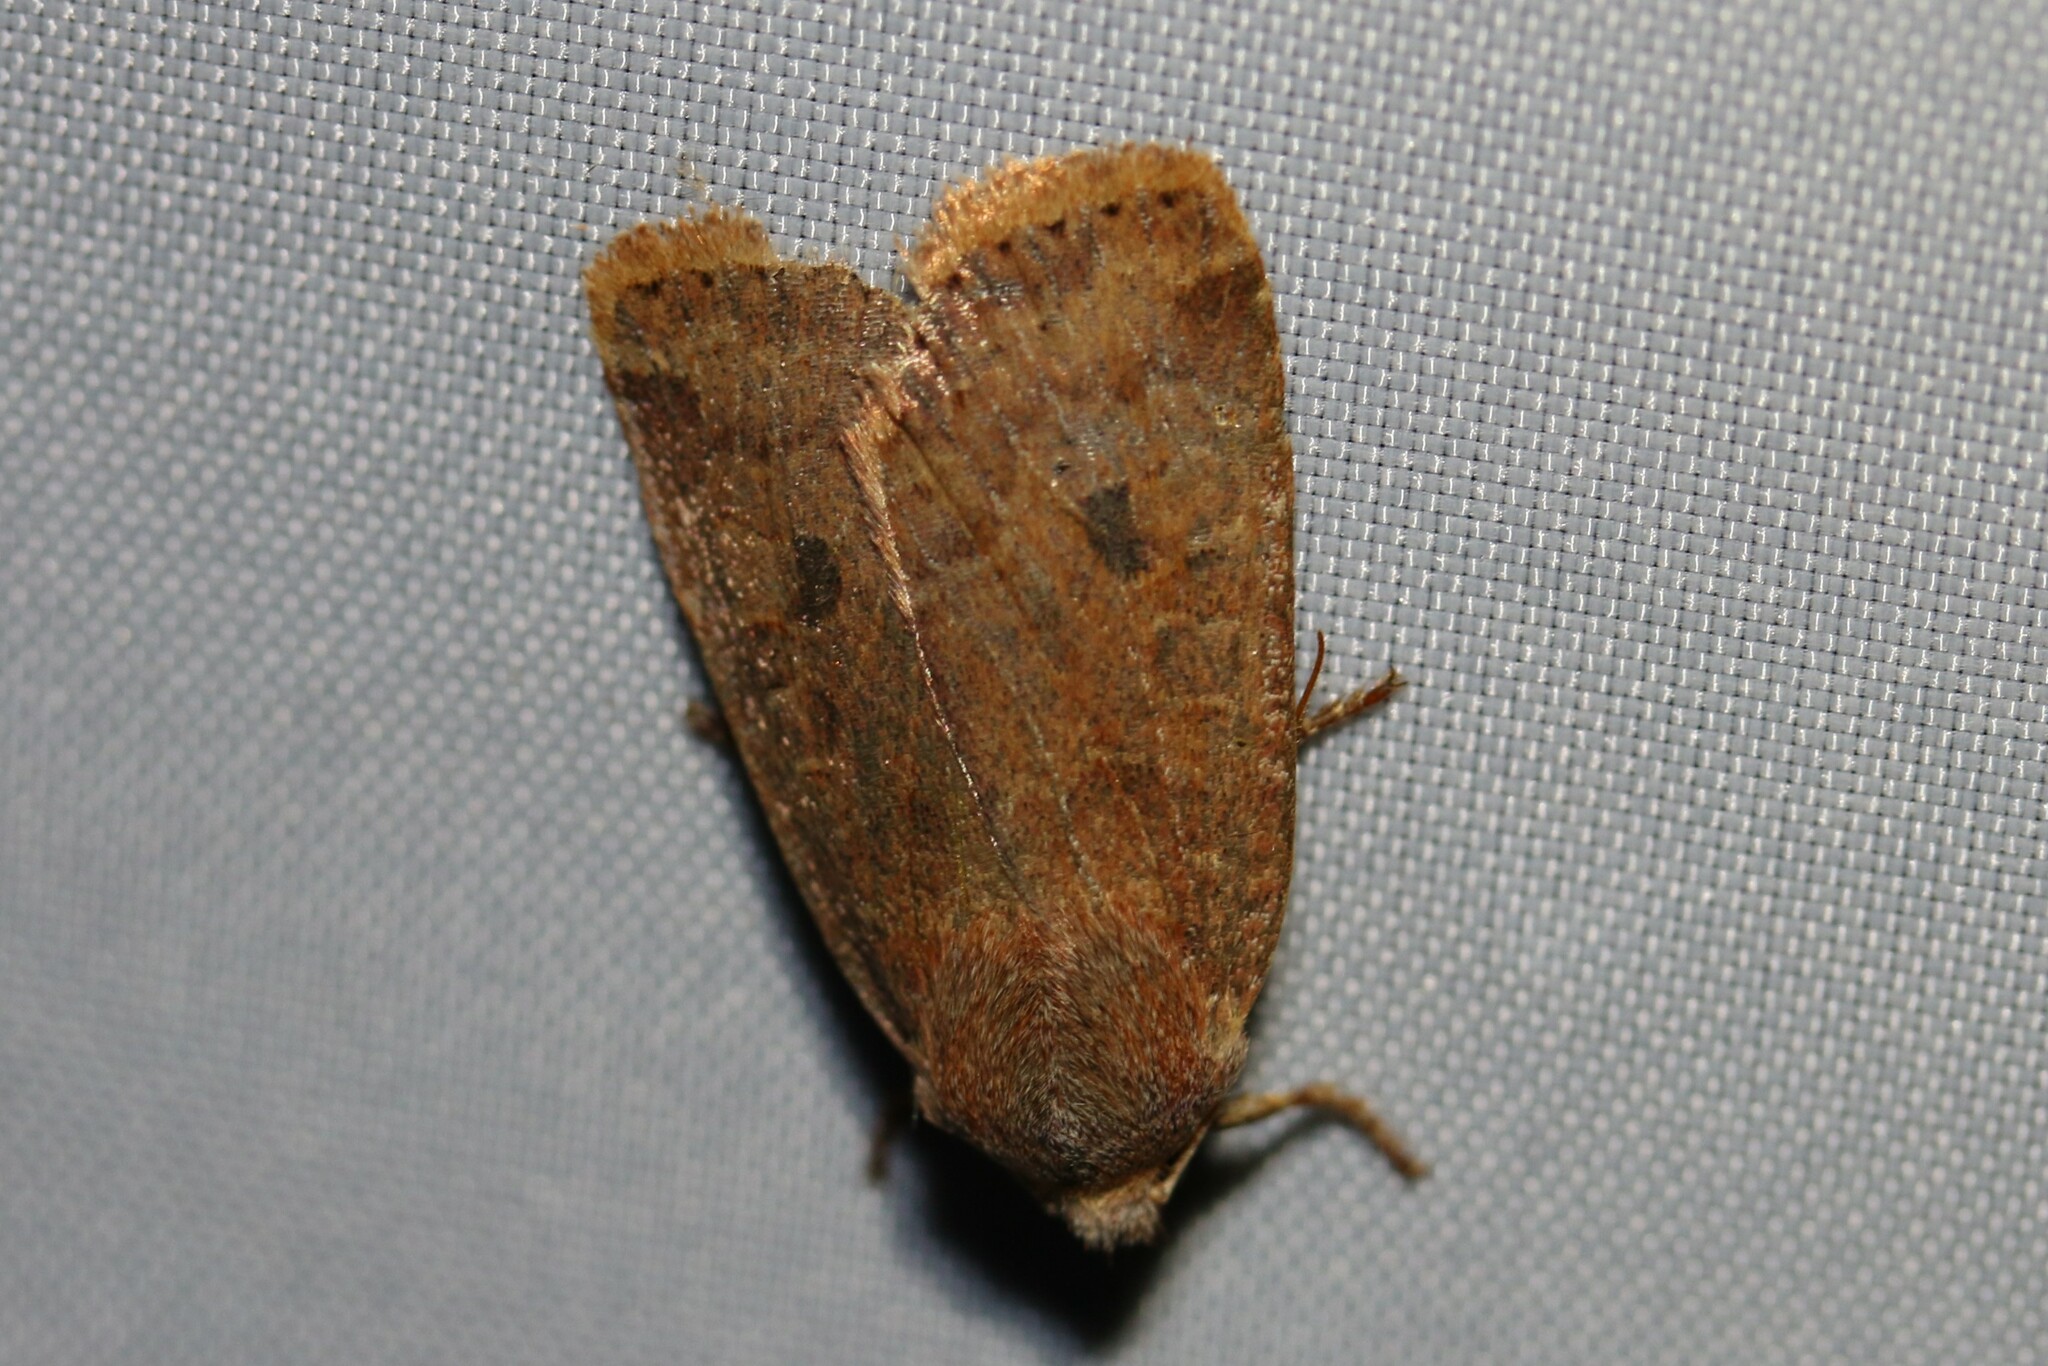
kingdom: Animalia
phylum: Arthropoda
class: Insecta
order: Lepidoptera
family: Noctuidae
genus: Conistra
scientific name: Conistra vaccinii
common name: Chestnut
